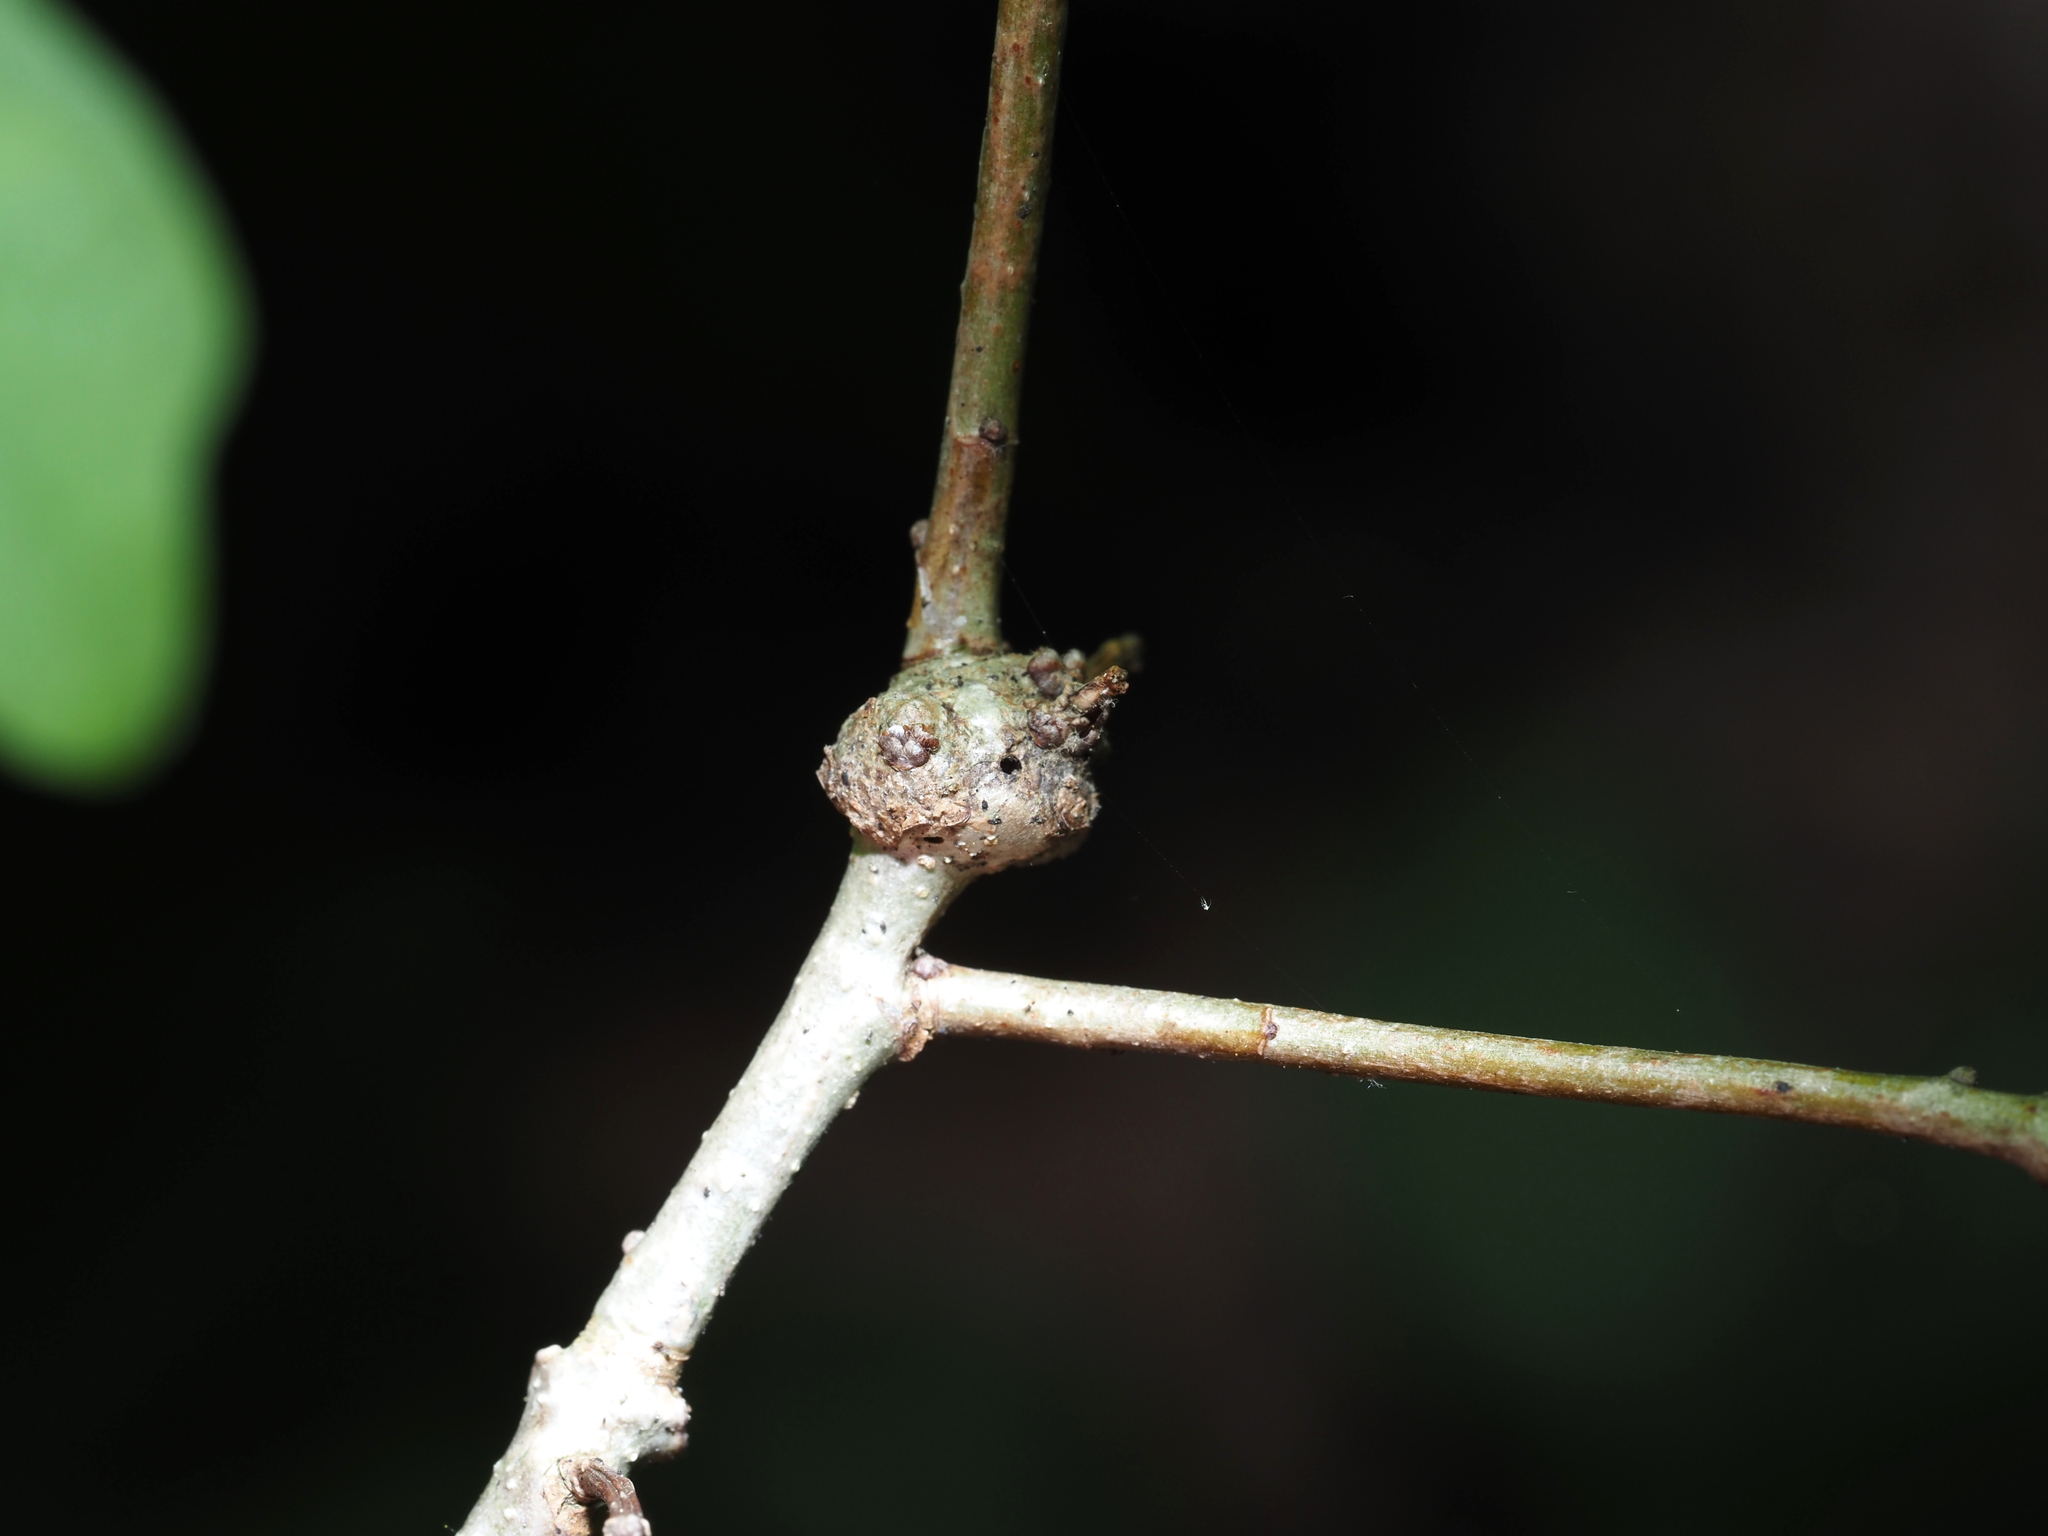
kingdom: Animalia
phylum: Arthropoda
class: Insecta
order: Hymenoptera
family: Cynipidae
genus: Loxaulus
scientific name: Loxaulus
